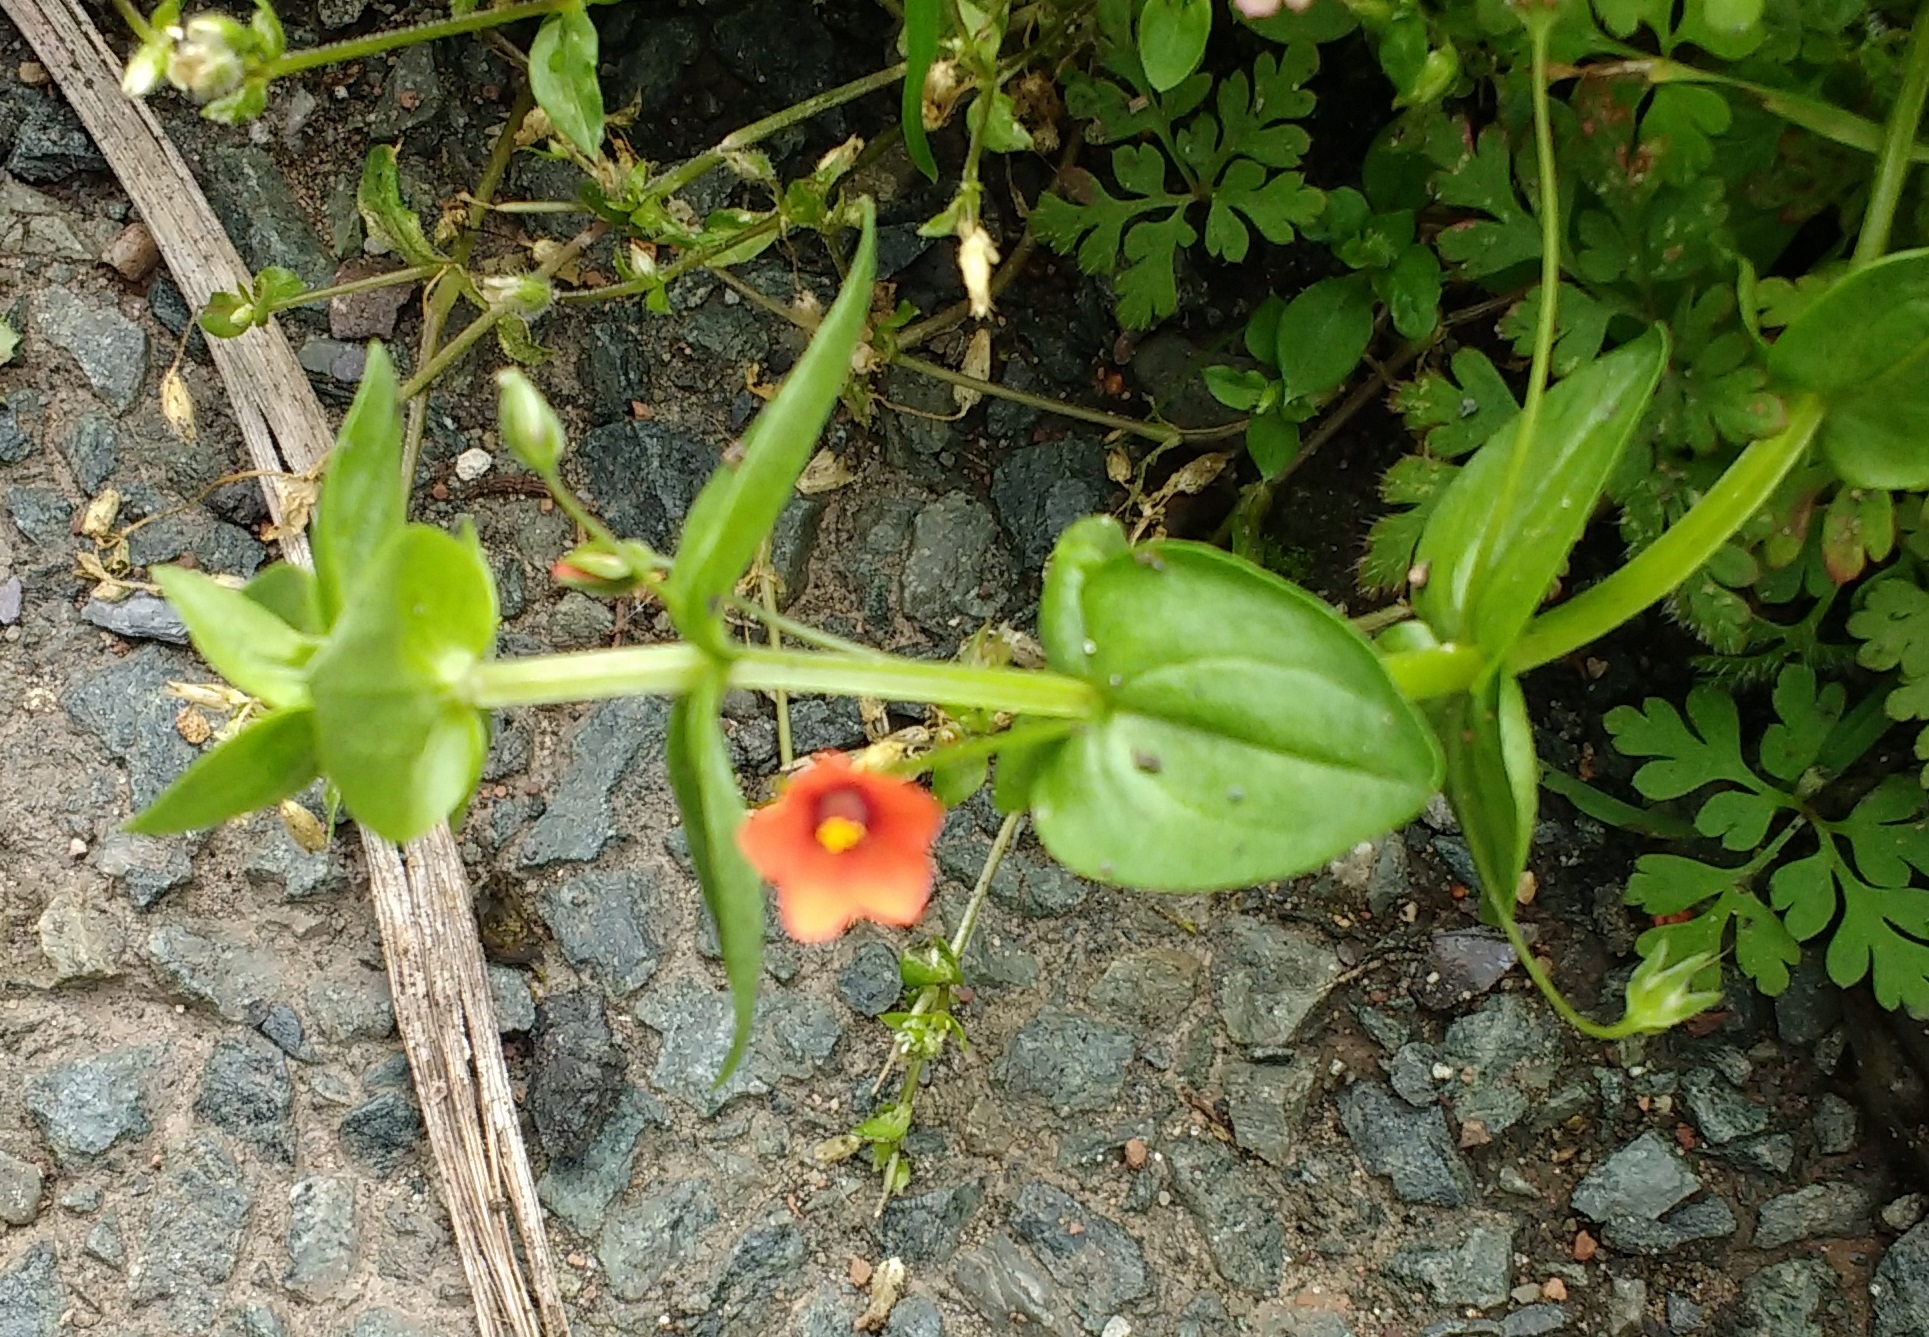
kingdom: Plantae
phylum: Tracheophyta
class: Magnoliopsida
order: Ericales
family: Primulaceae
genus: Lysimachia
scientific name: Lysimachia arvensis
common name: Scarlet pimpernel
